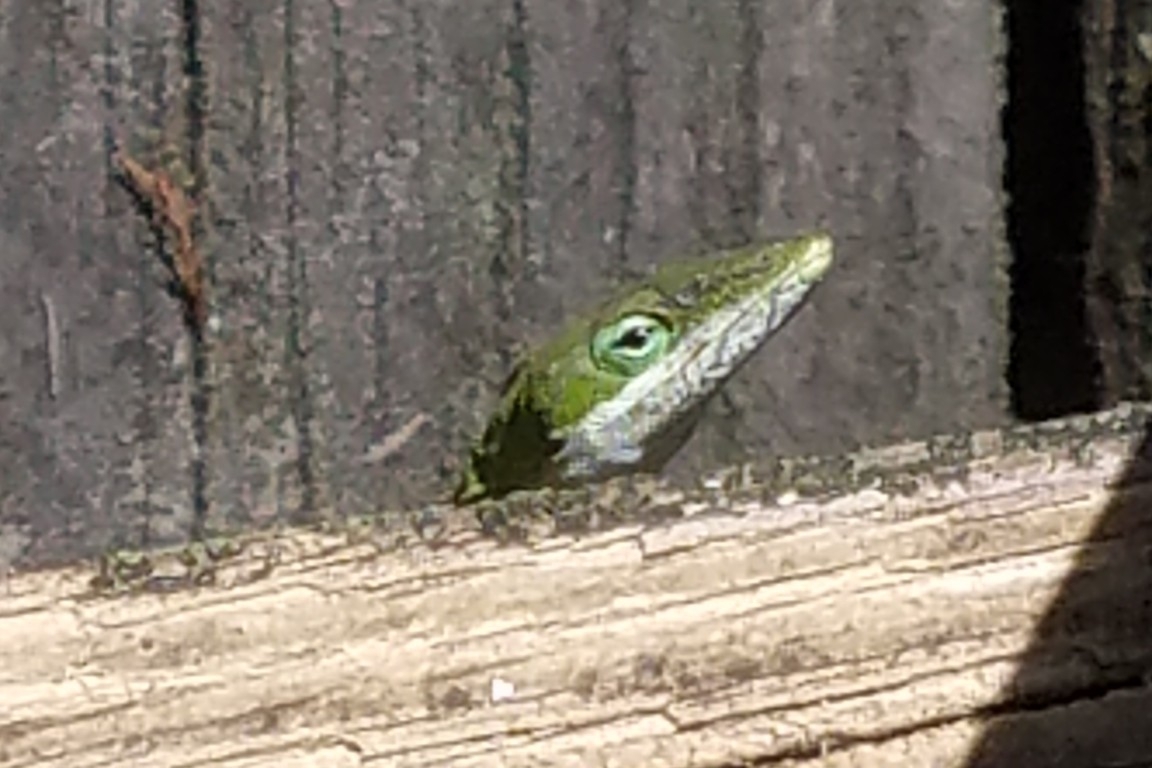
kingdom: Animalia
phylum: Chordata
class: Squamata
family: Dactyloidae
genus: Anolis
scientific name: Anolis carolinensis
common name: Green anole
